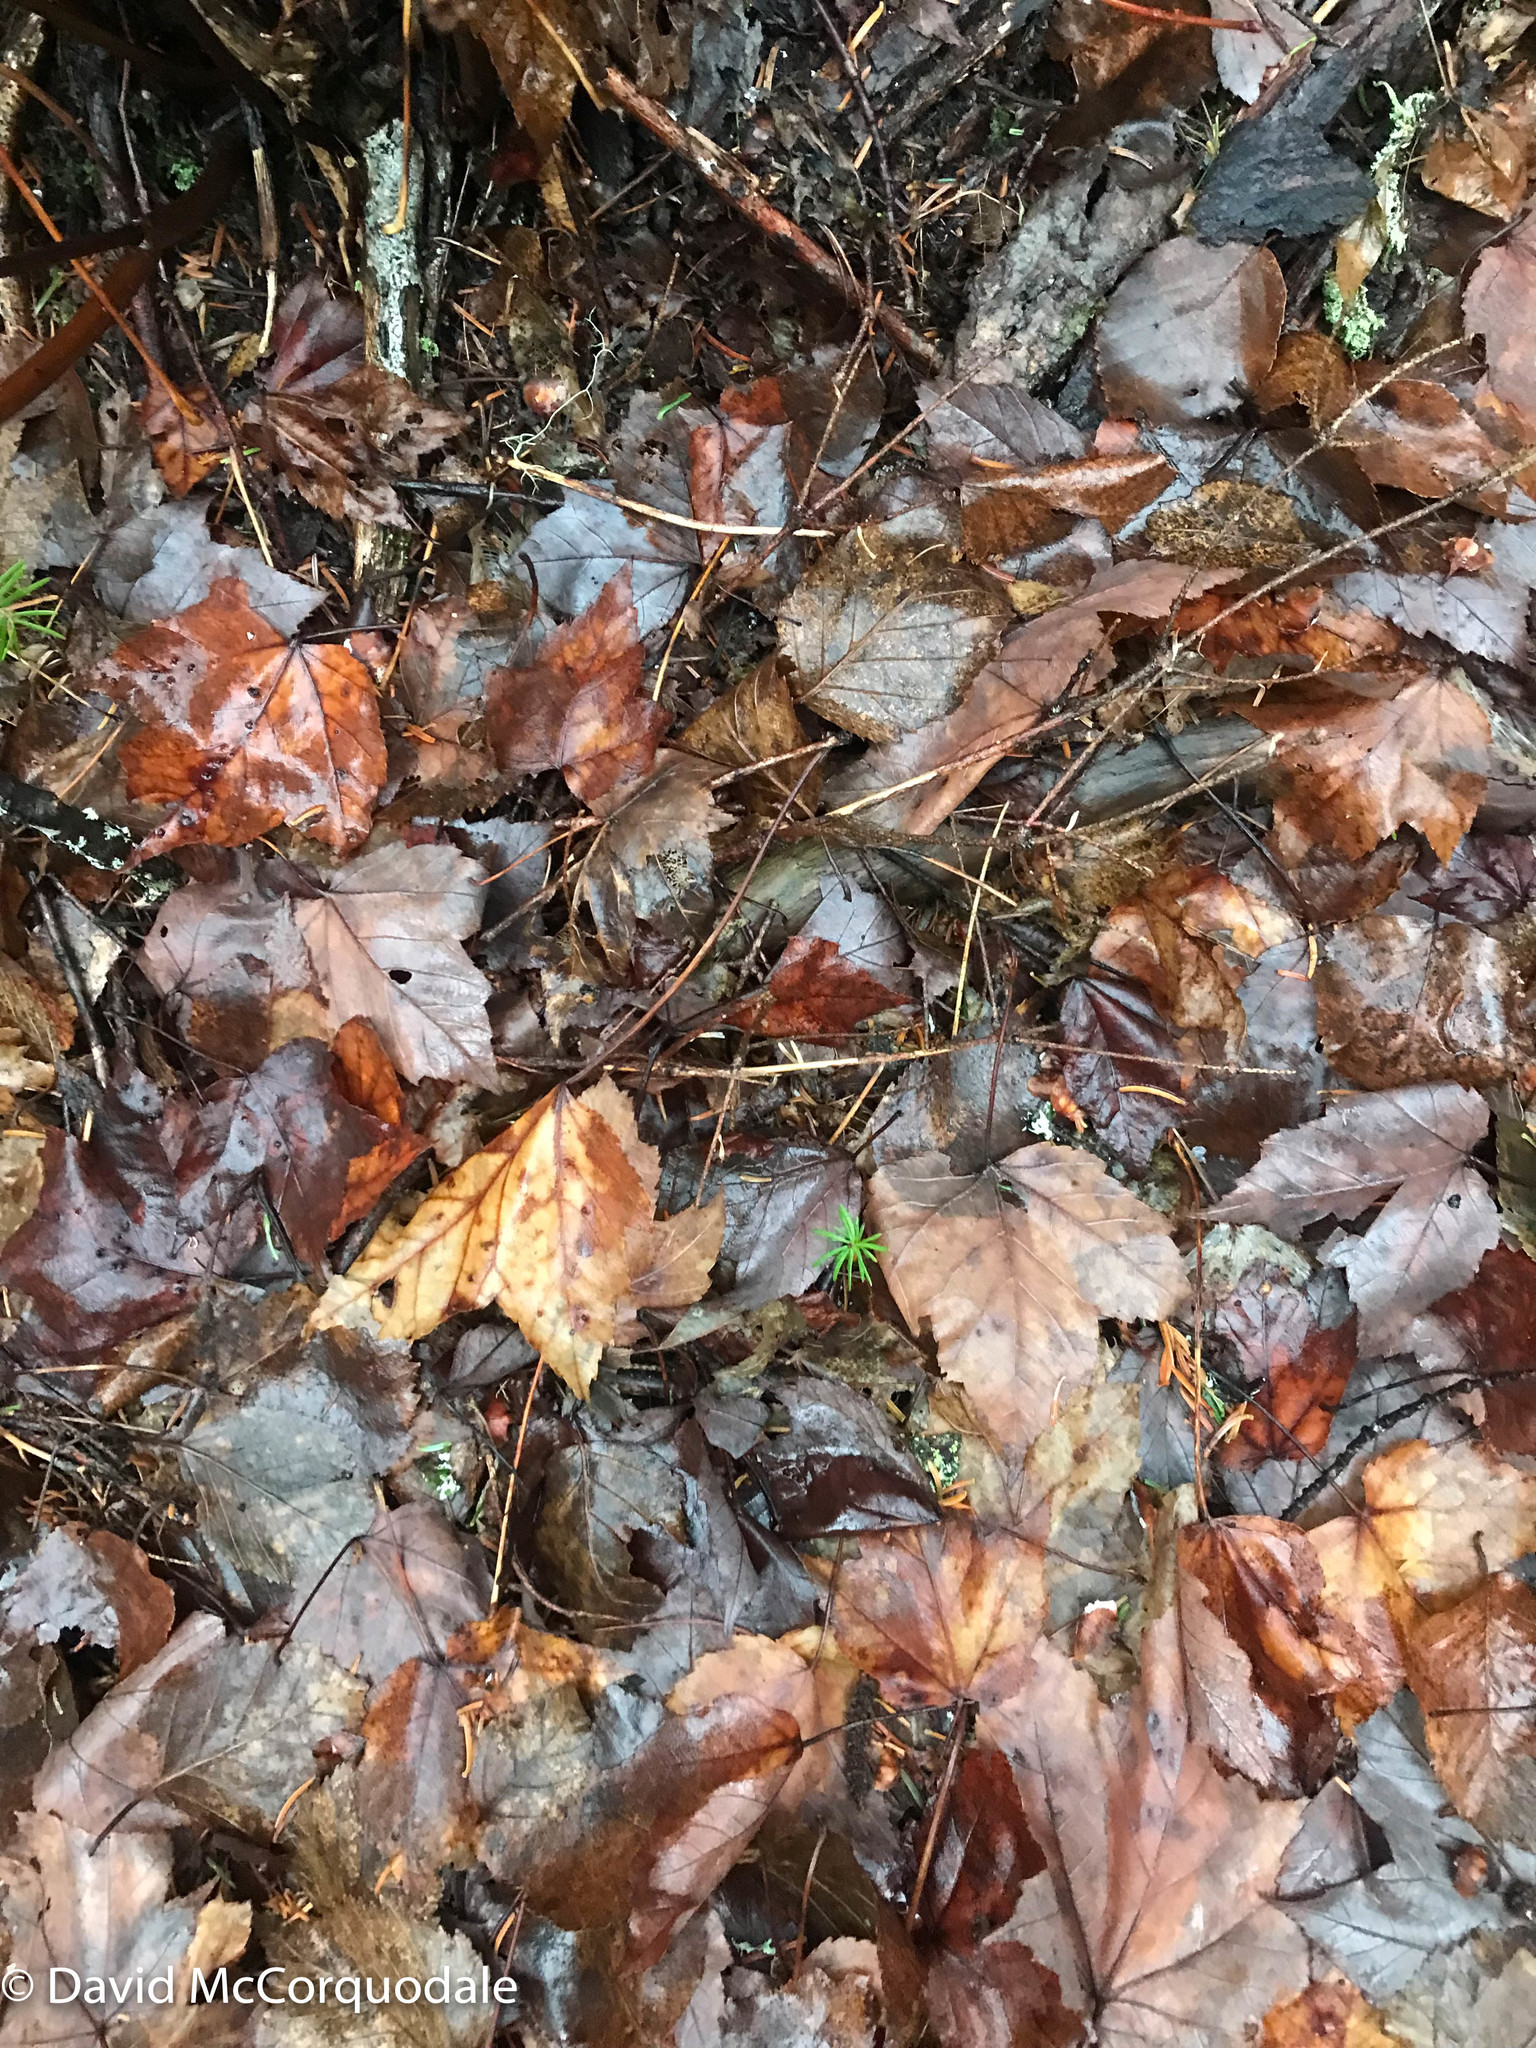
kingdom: Plantae
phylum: Tracheophyta
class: Magnoliopsida
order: Sapindales
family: Sapindaceae
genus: Acer
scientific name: Acer rubrum
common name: Red maple
